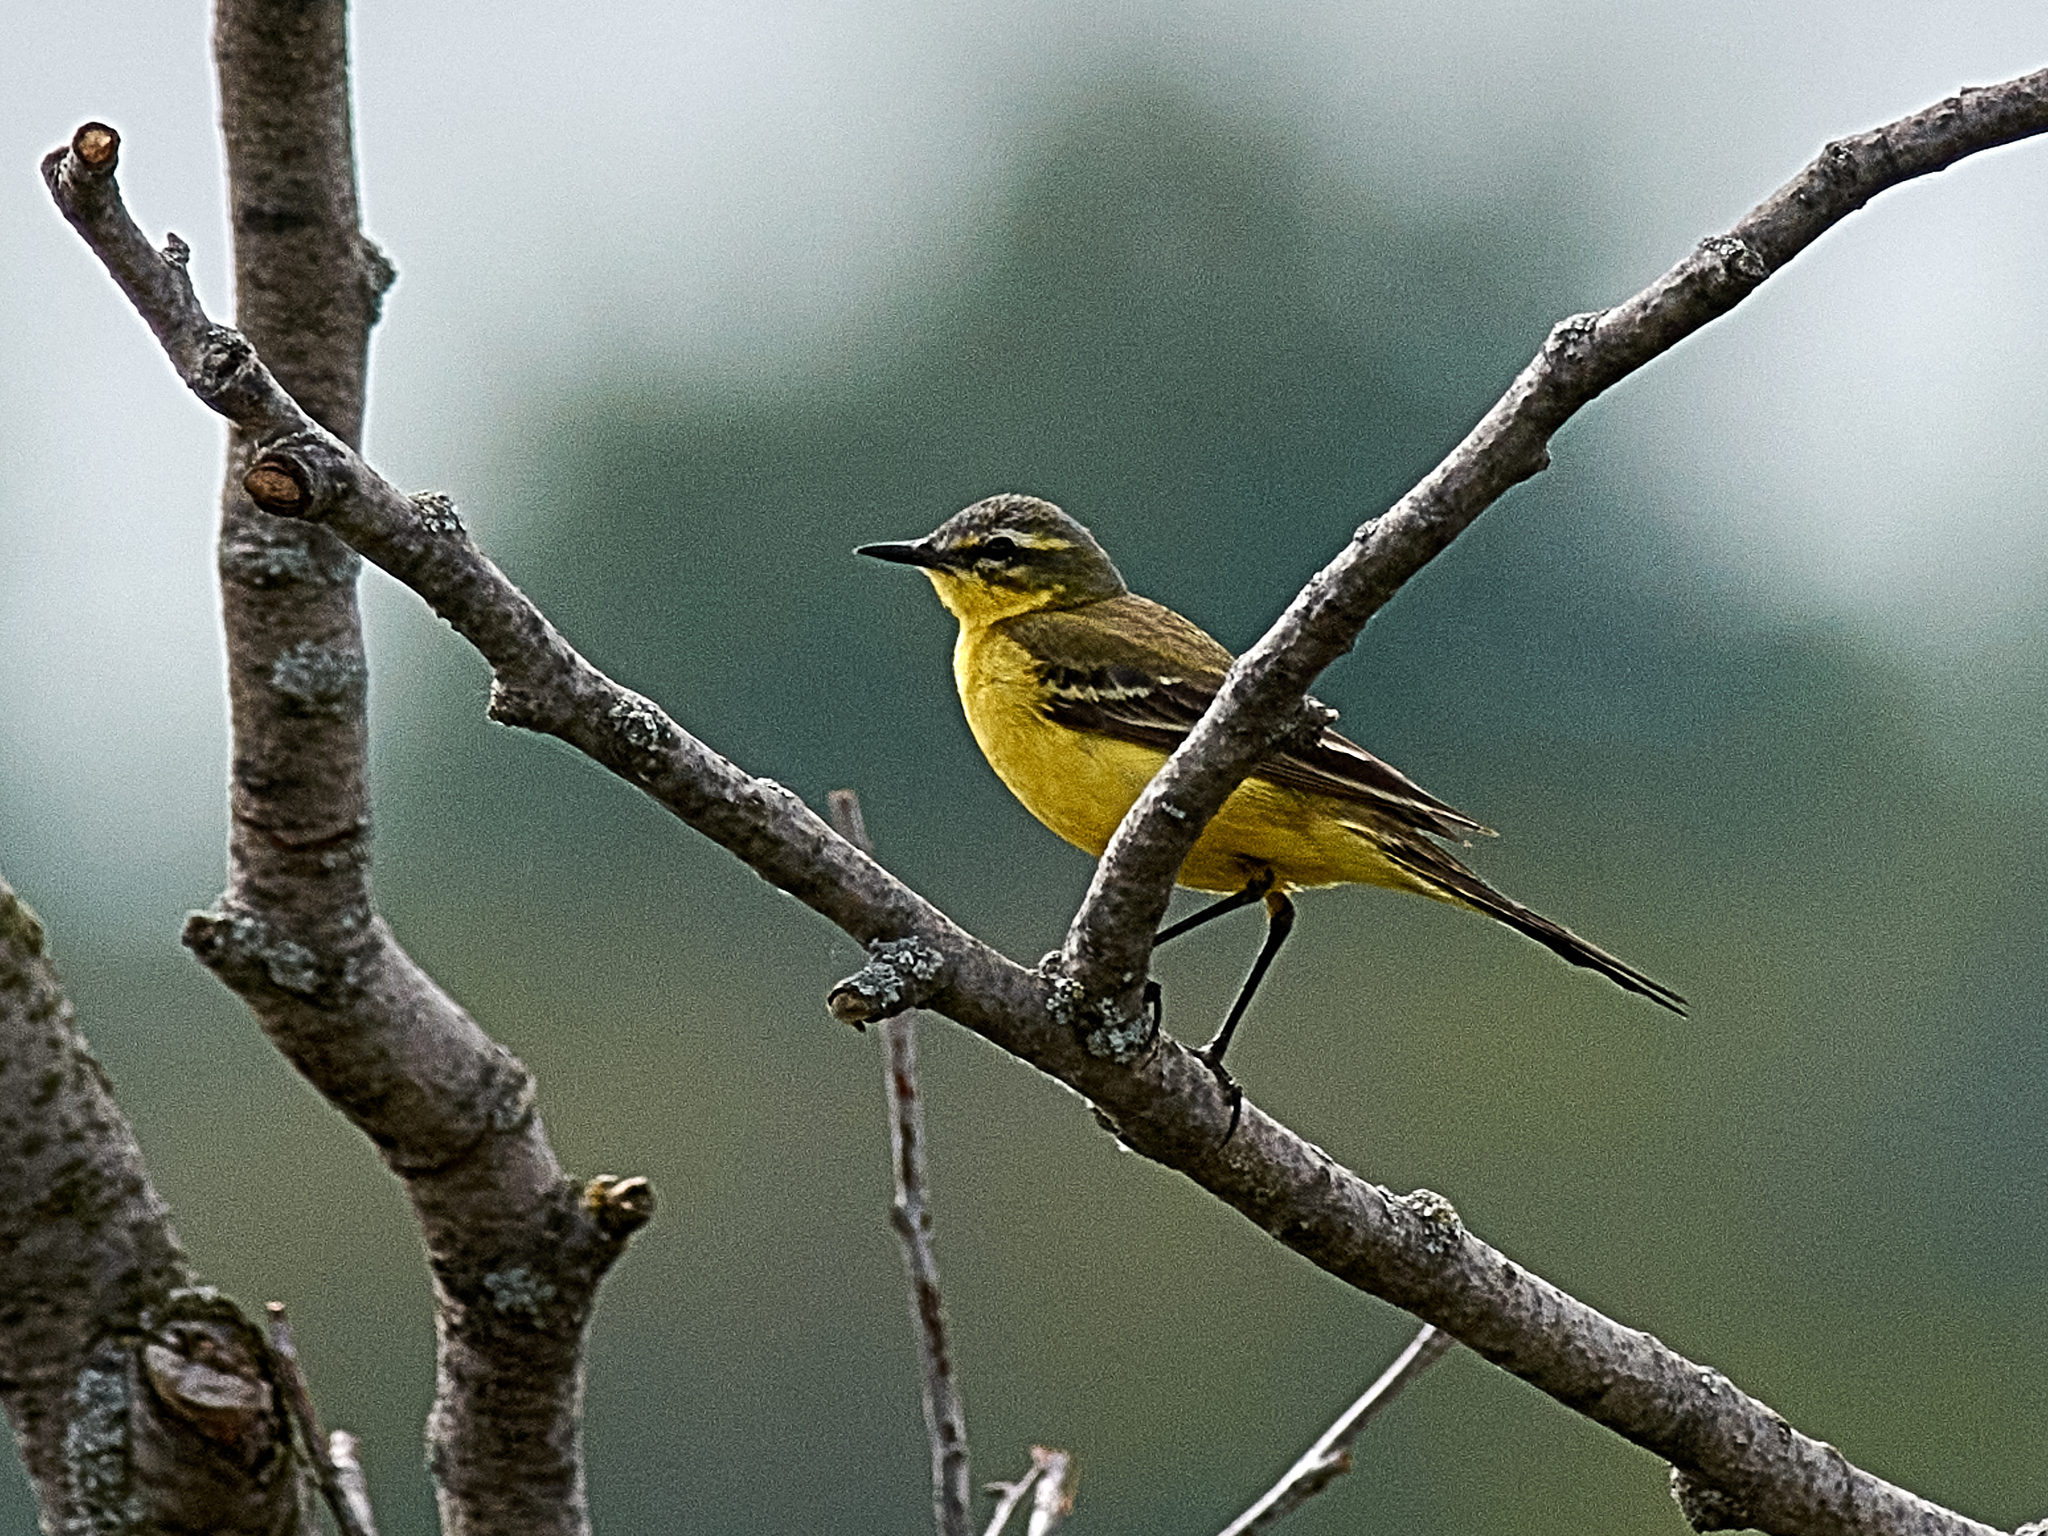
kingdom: Animalia
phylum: Chordata
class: Aves
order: Passeriformes
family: Motacillidae
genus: Motacilla
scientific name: Motacilla flava
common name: Western yellow wagtail
